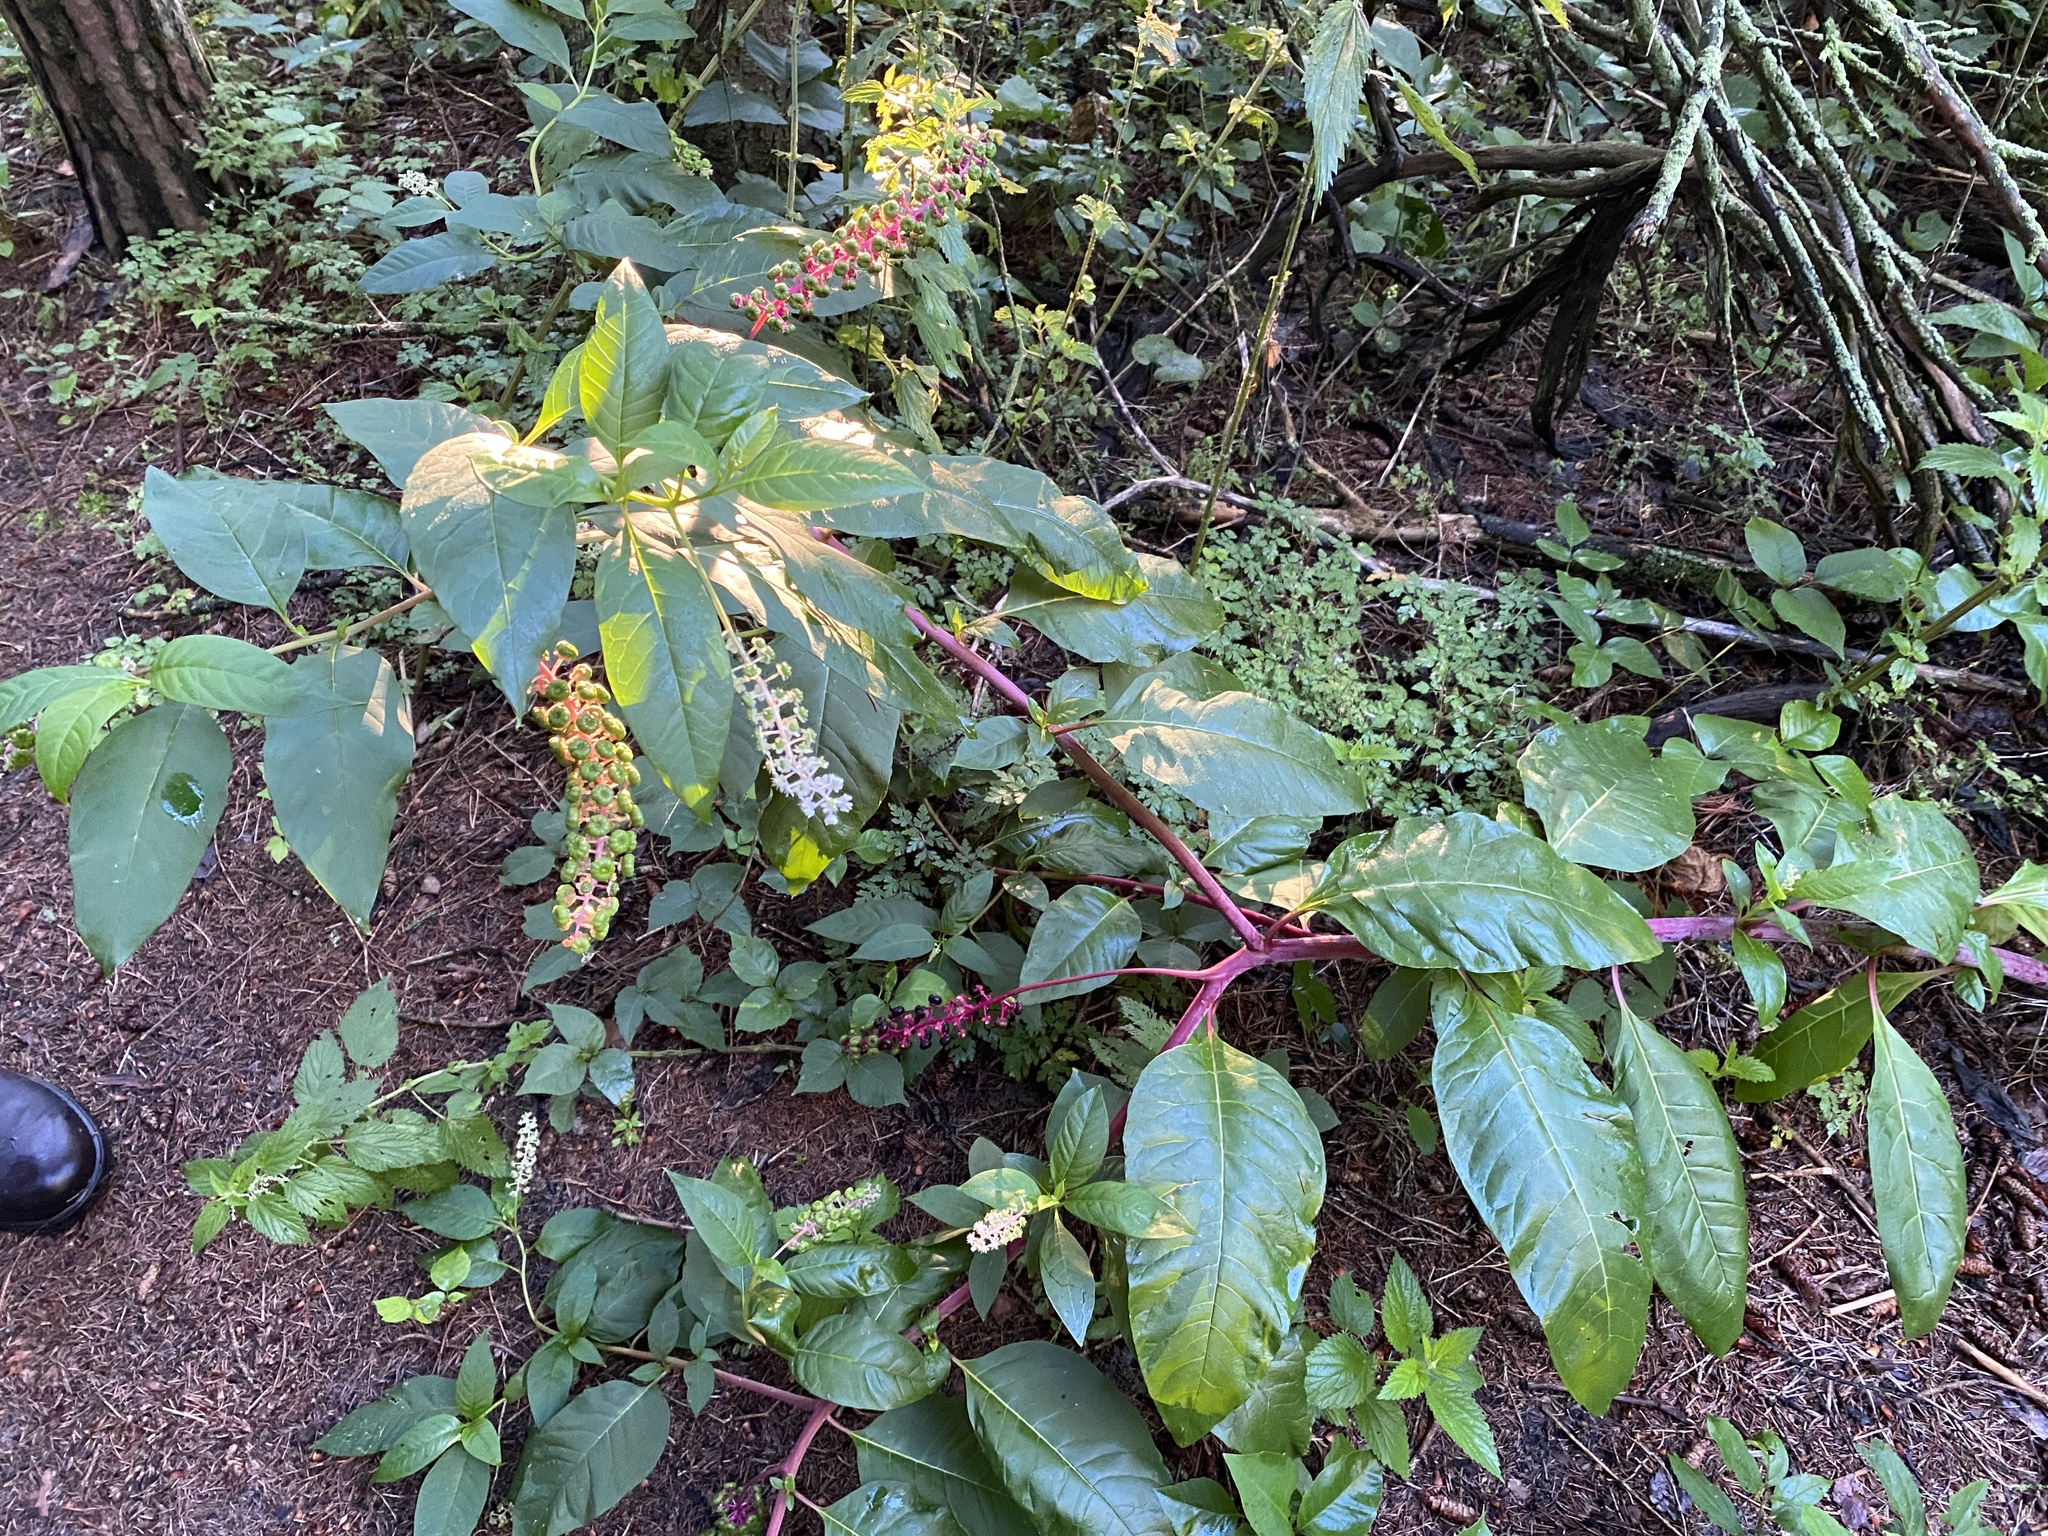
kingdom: Plantae
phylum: Tracheophyta
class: Magnoliopsida
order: Caryophyllales
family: Phytolaccaceae
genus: Phytolacca
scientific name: Phytolacca americana
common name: American pokeweed
